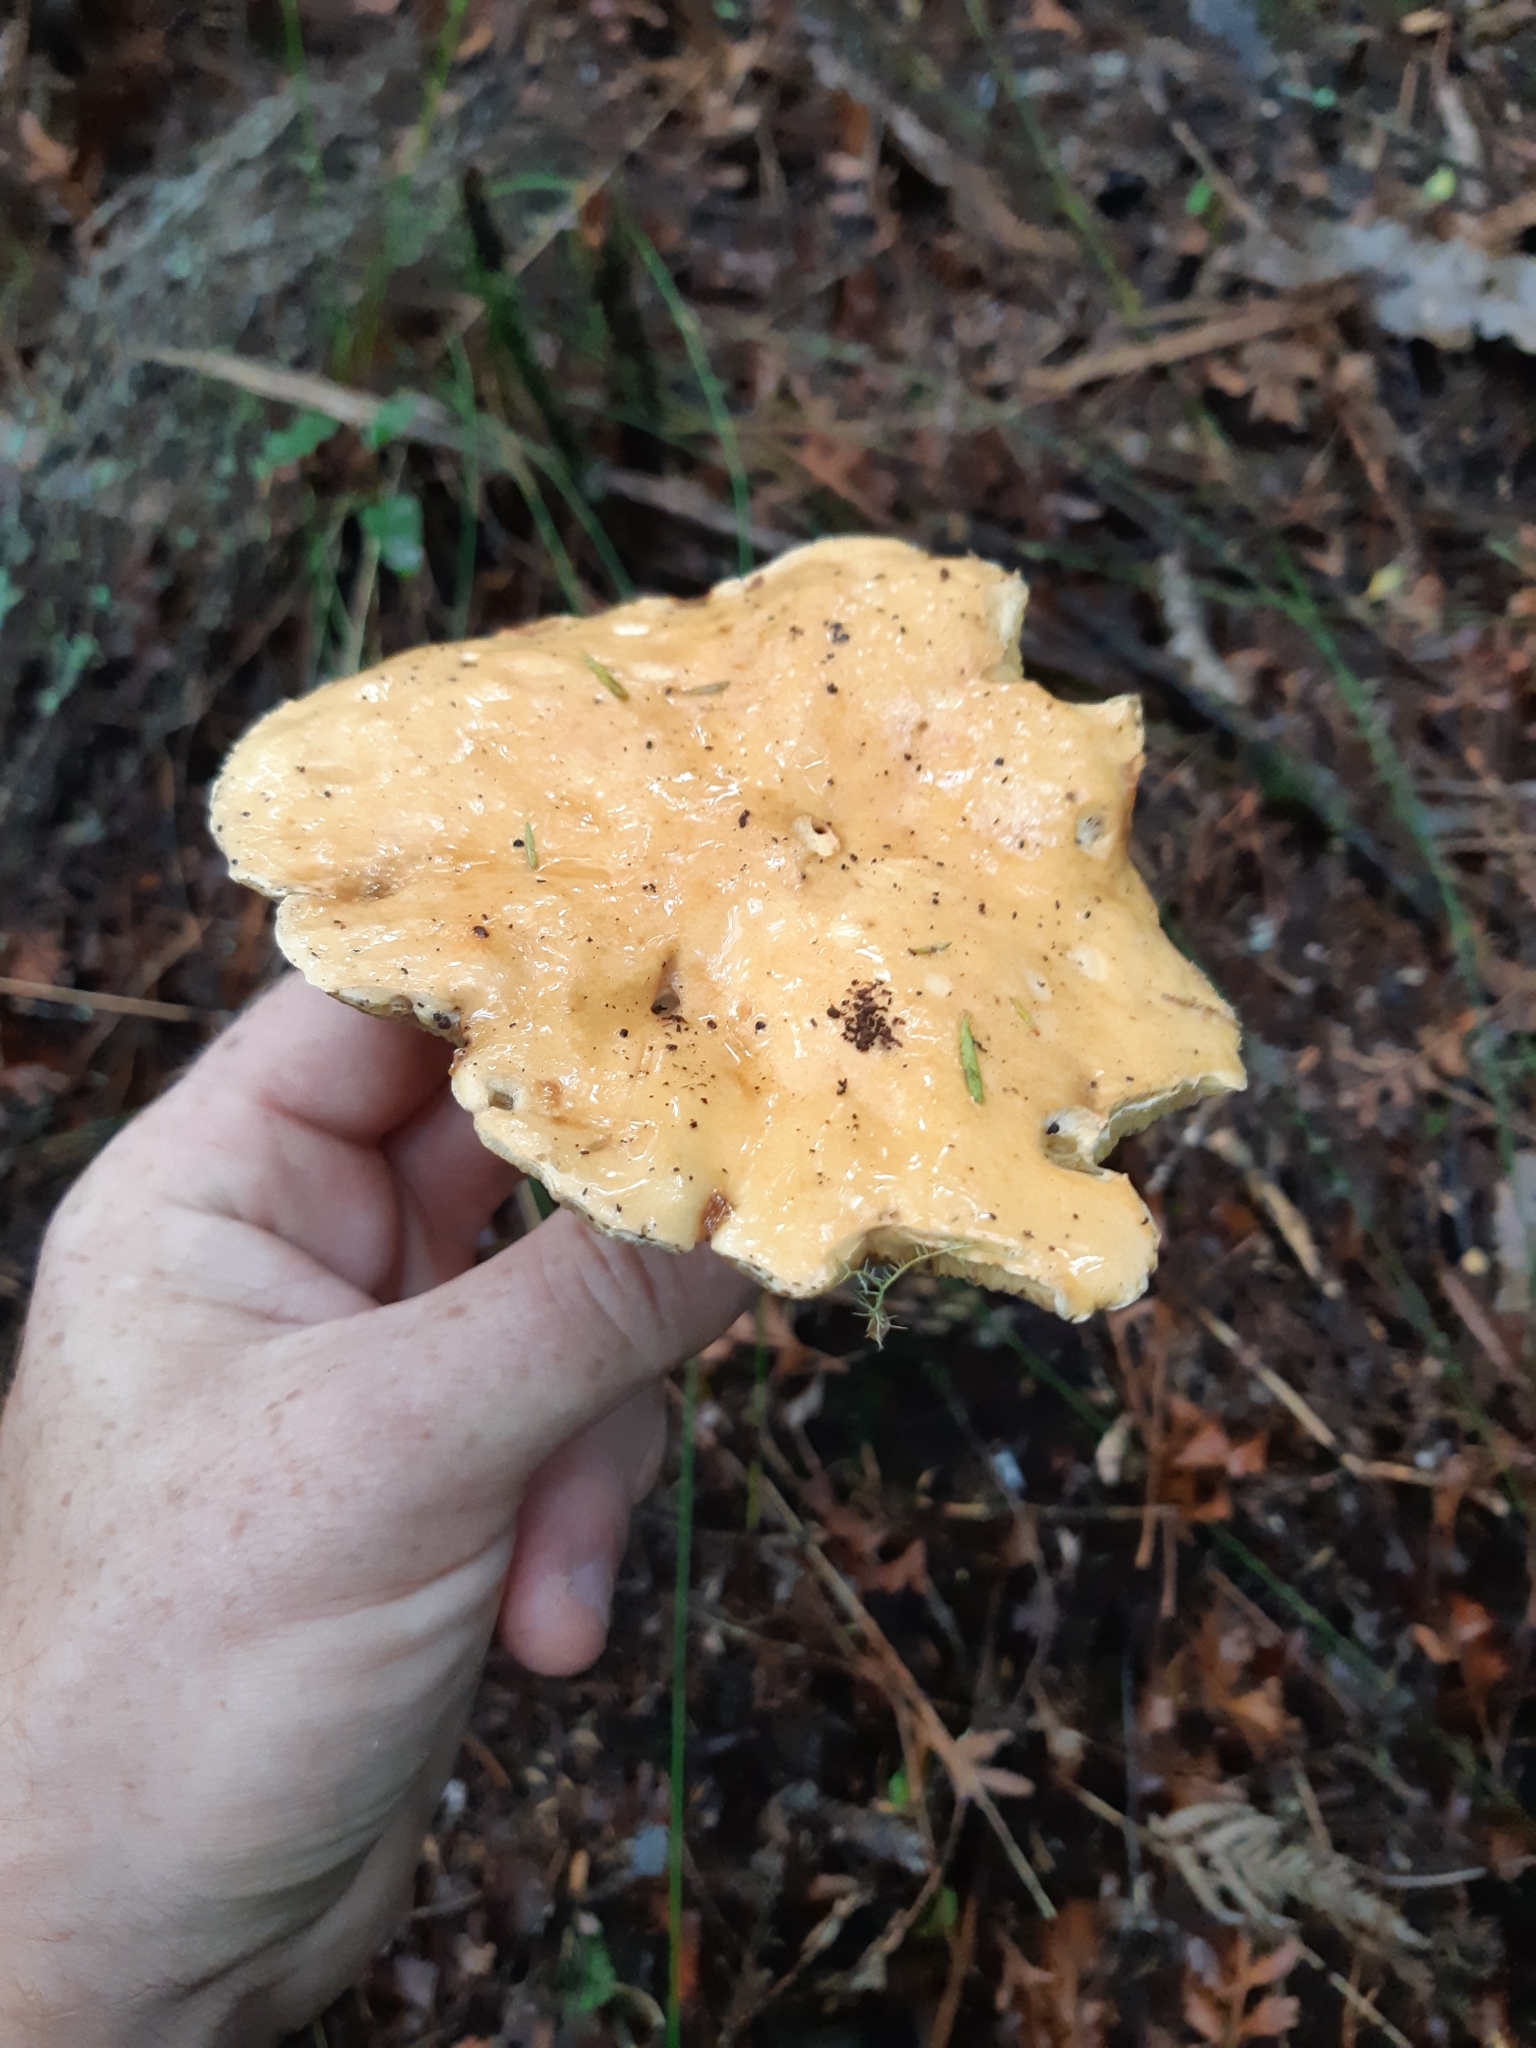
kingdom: Fungi
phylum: Basidiomycota
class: Agaricomycetes
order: Boletales
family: Suillaceae
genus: Suillus
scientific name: Suillus bovinus
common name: Bovine bolete
